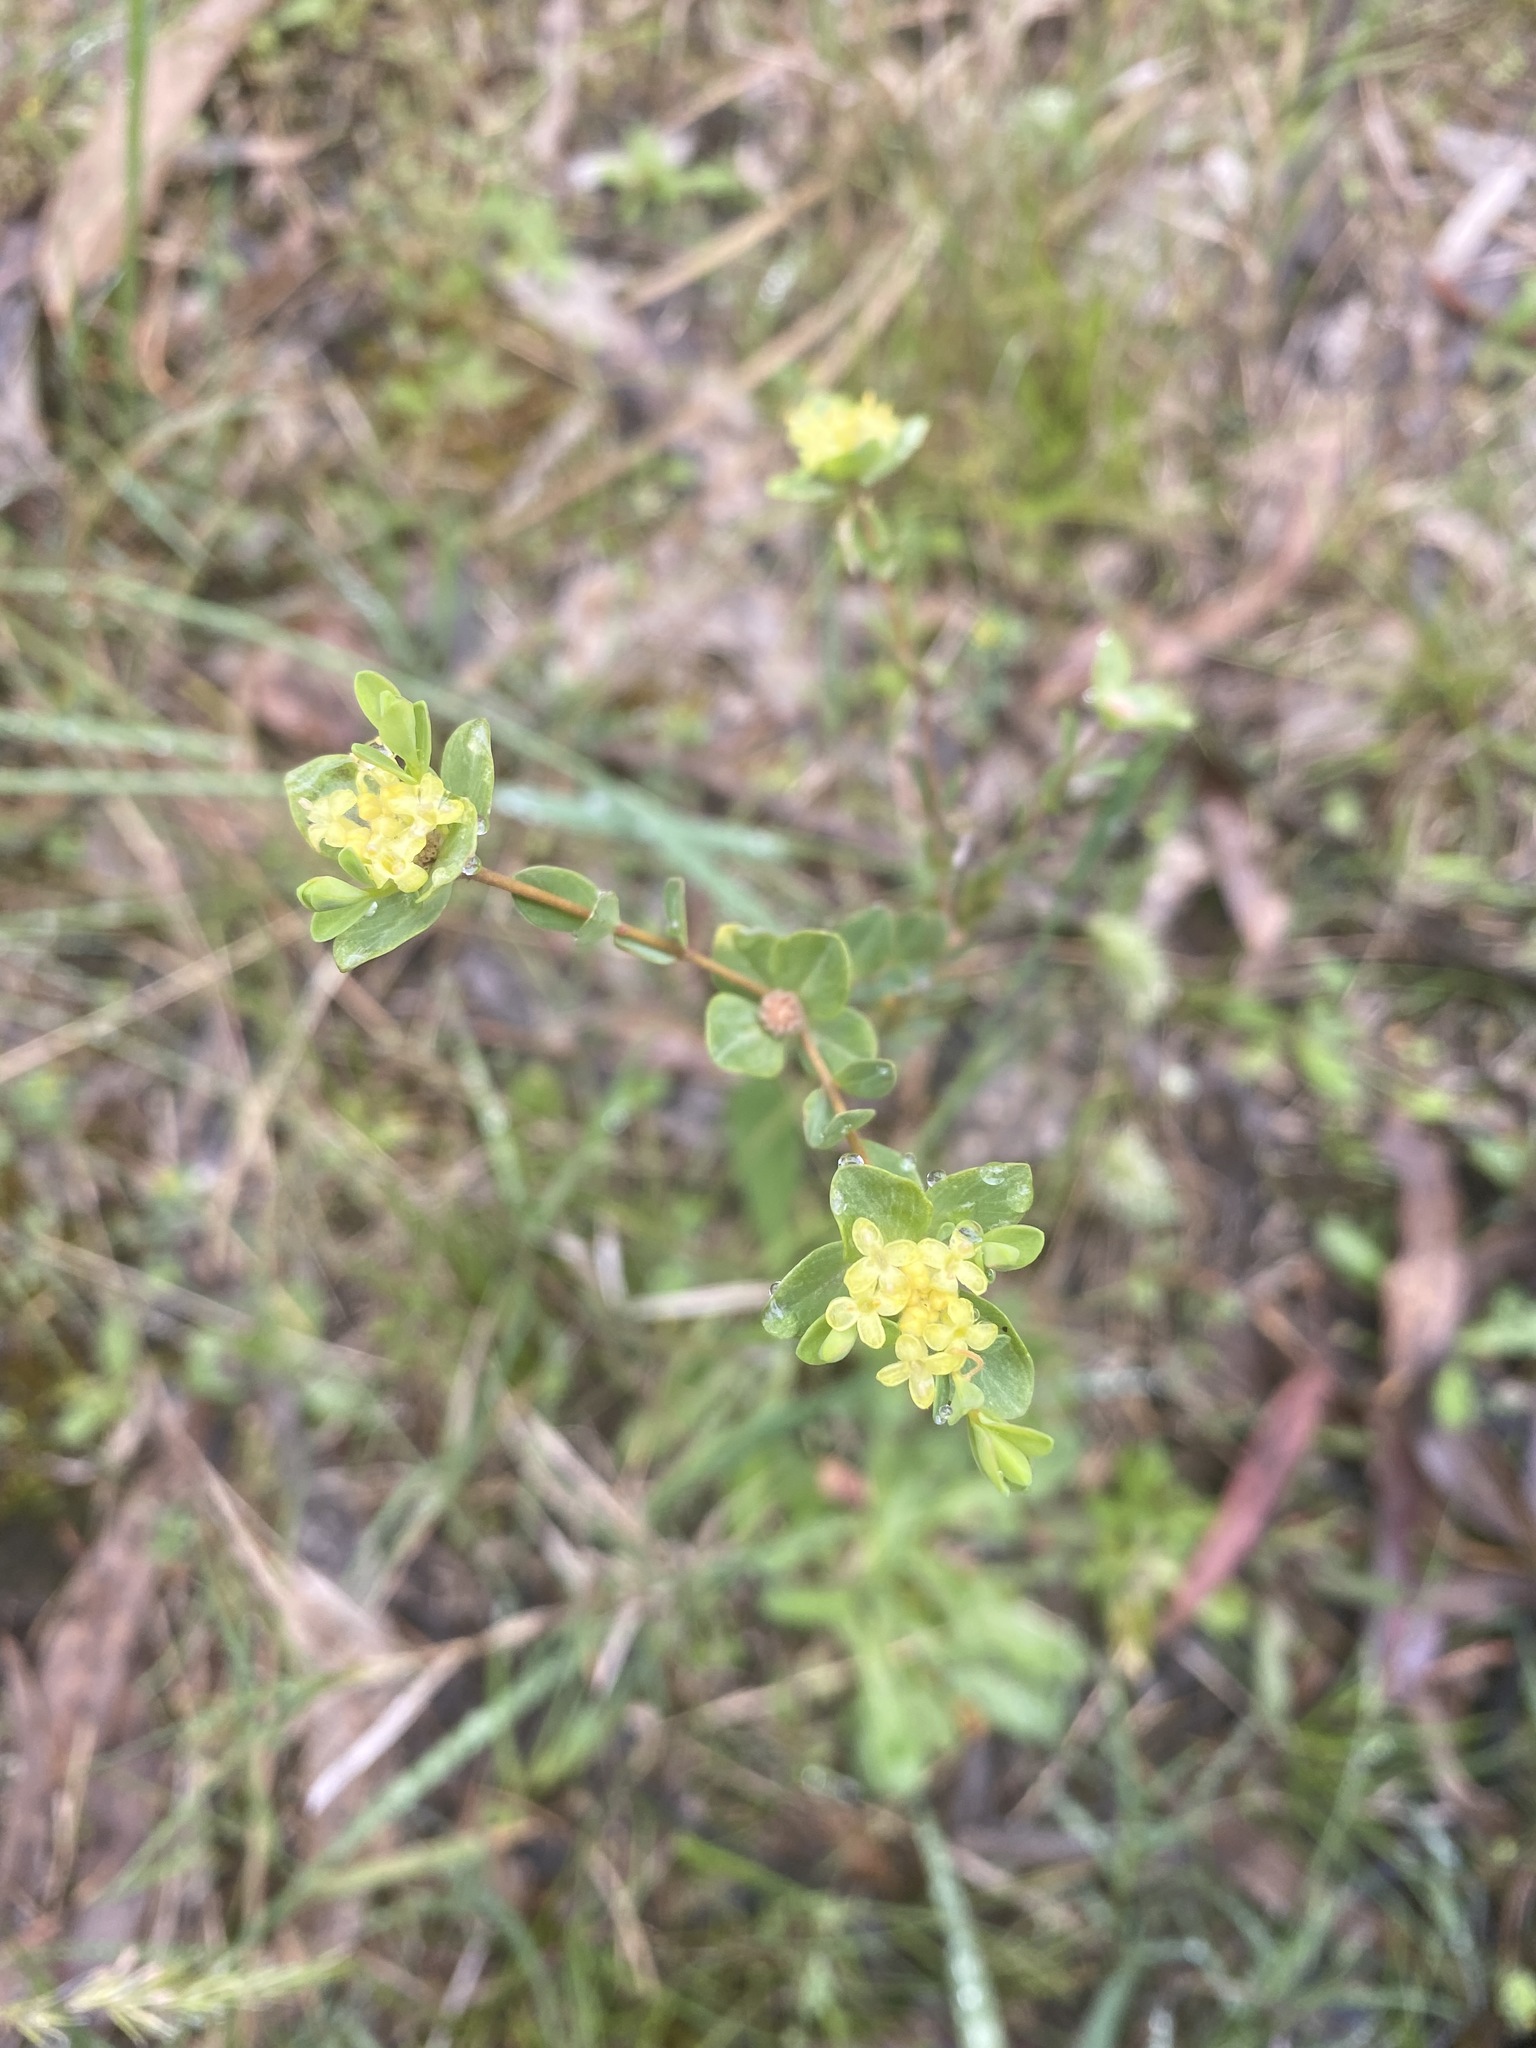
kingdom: Plantae
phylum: Tracheophyta
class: Magnoliopsida
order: Malvales
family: Thymelaeaceae
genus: Pimelea
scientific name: Pimelea flava
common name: Yellow riceflower
